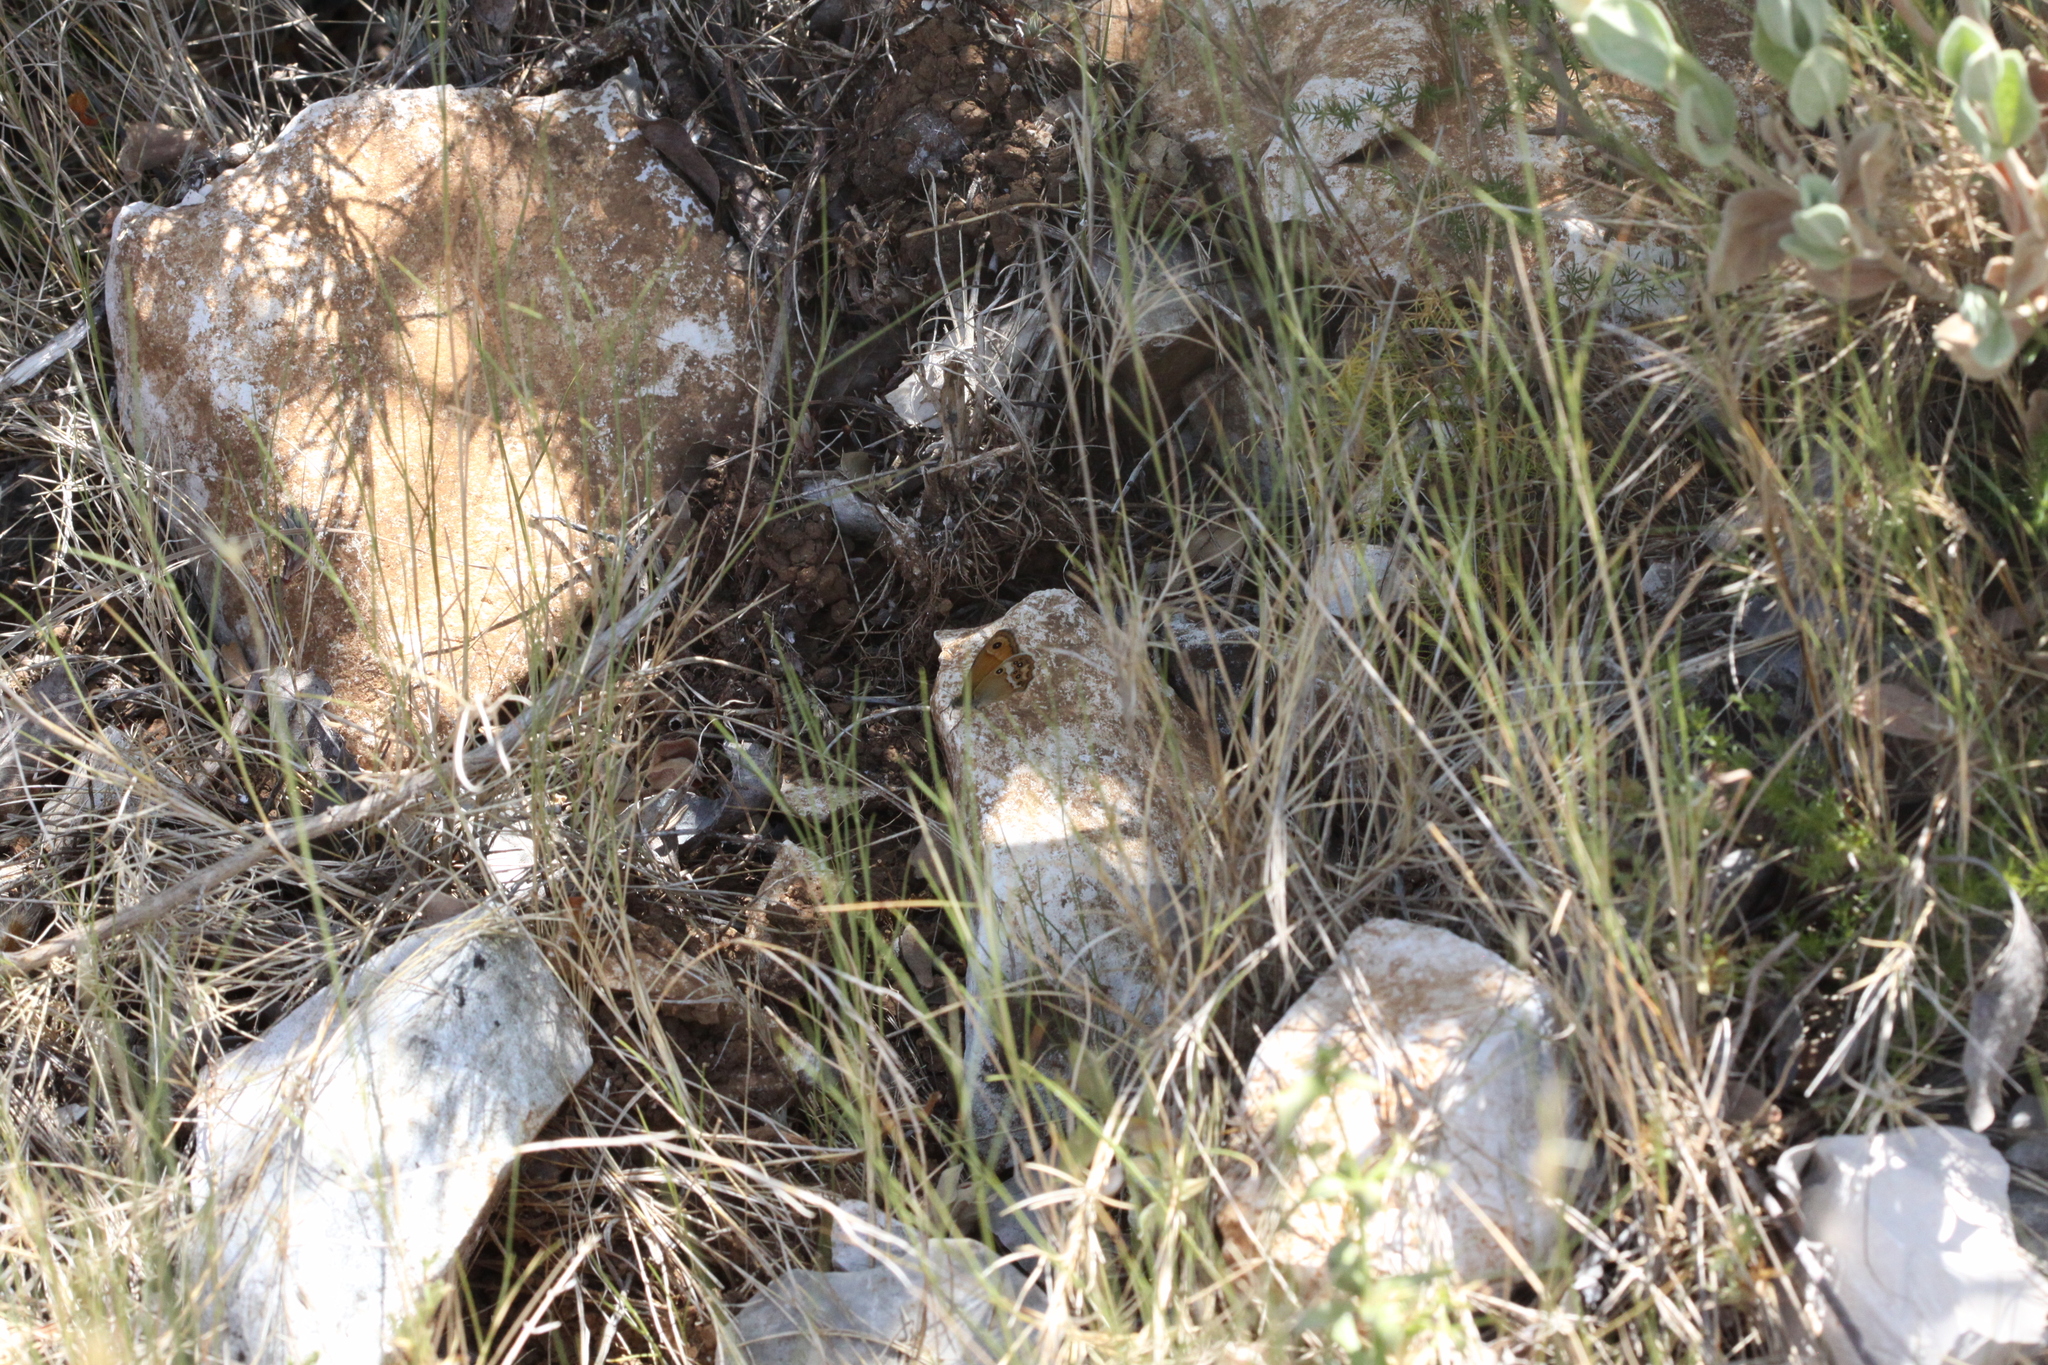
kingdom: Animalia
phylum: Arthropoda
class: Insecta
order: Lepidoptera
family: Nymphalidae
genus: Coenonympha
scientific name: Coenonympha dorus
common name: Dusky heath
